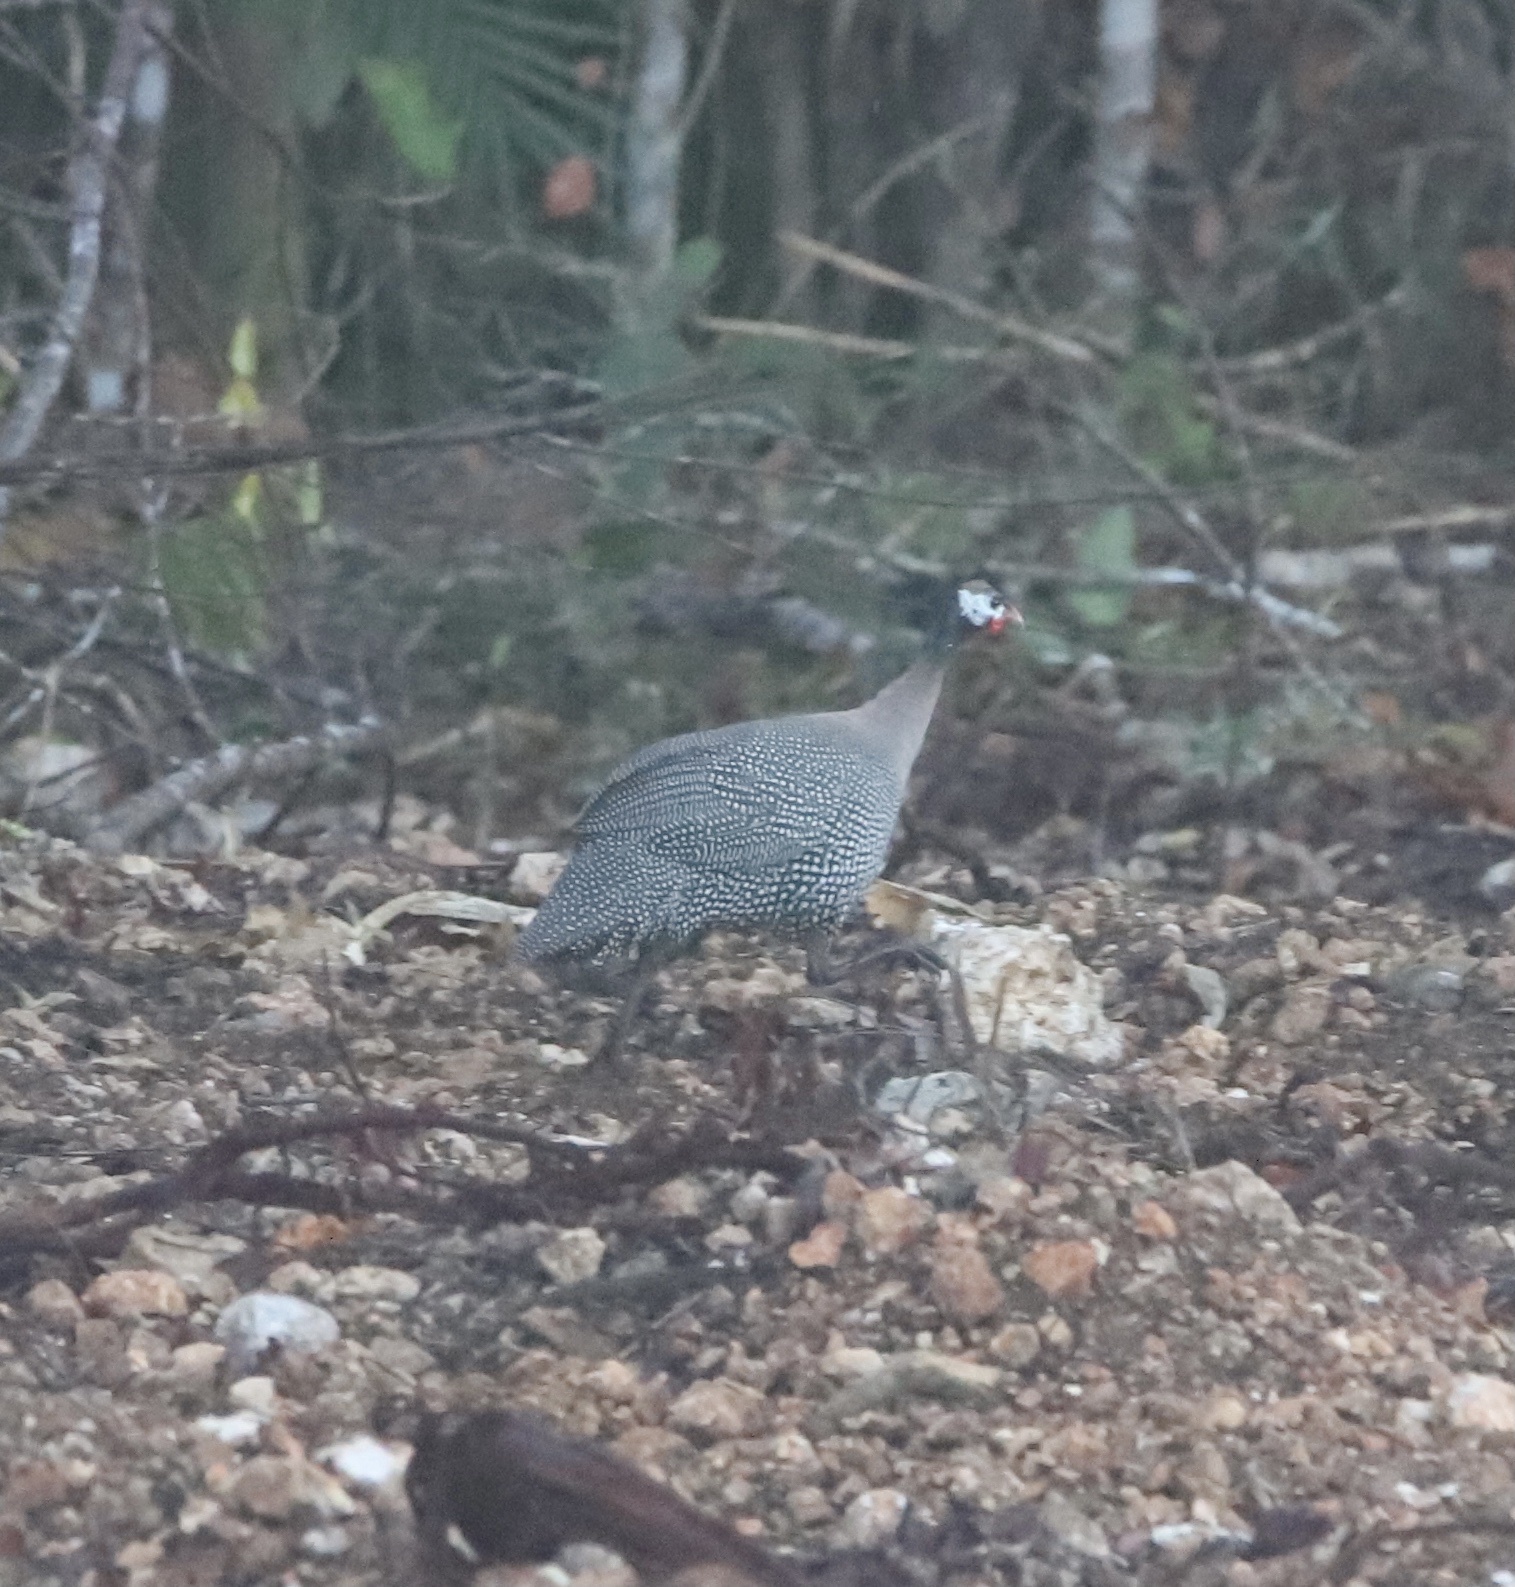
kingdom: Animalia
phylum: Chordata
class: Aves
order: Galliformes
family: Numididae
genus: Numida
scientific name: Numida meleagris
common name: Helmeted guineafowl
